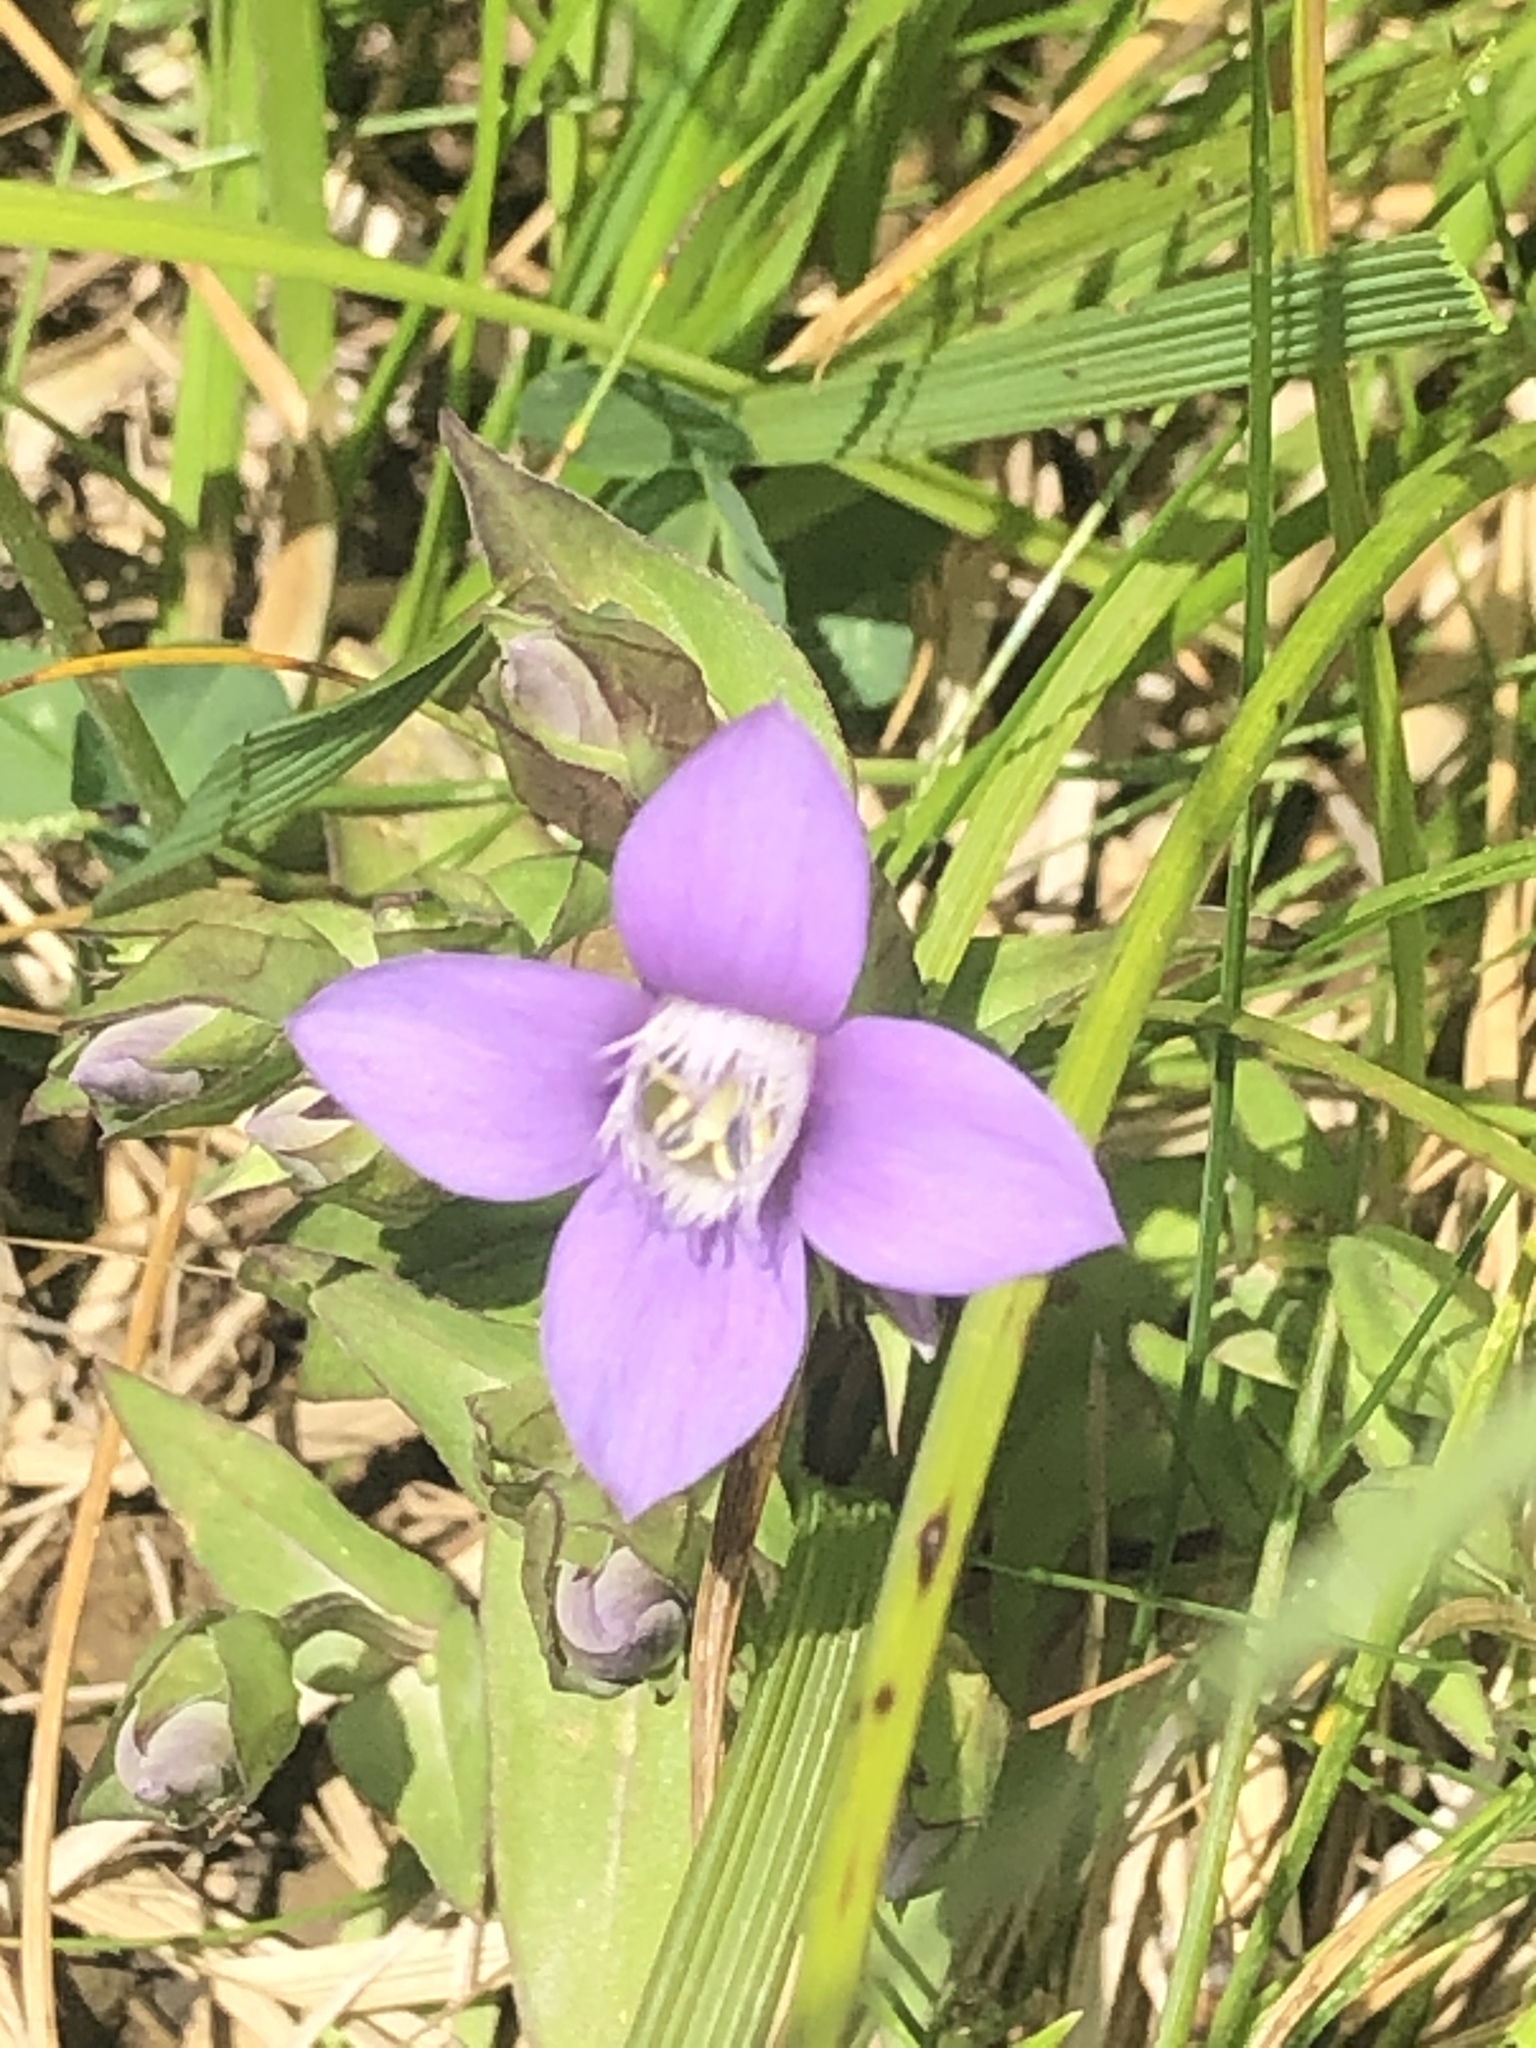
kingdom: Plantae
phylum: Tracheophyta
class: Magnoliopsida
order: Gentianales
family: Gentianaceae
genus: Gentianella
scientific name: Gentianella campestris
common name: Field gentian
